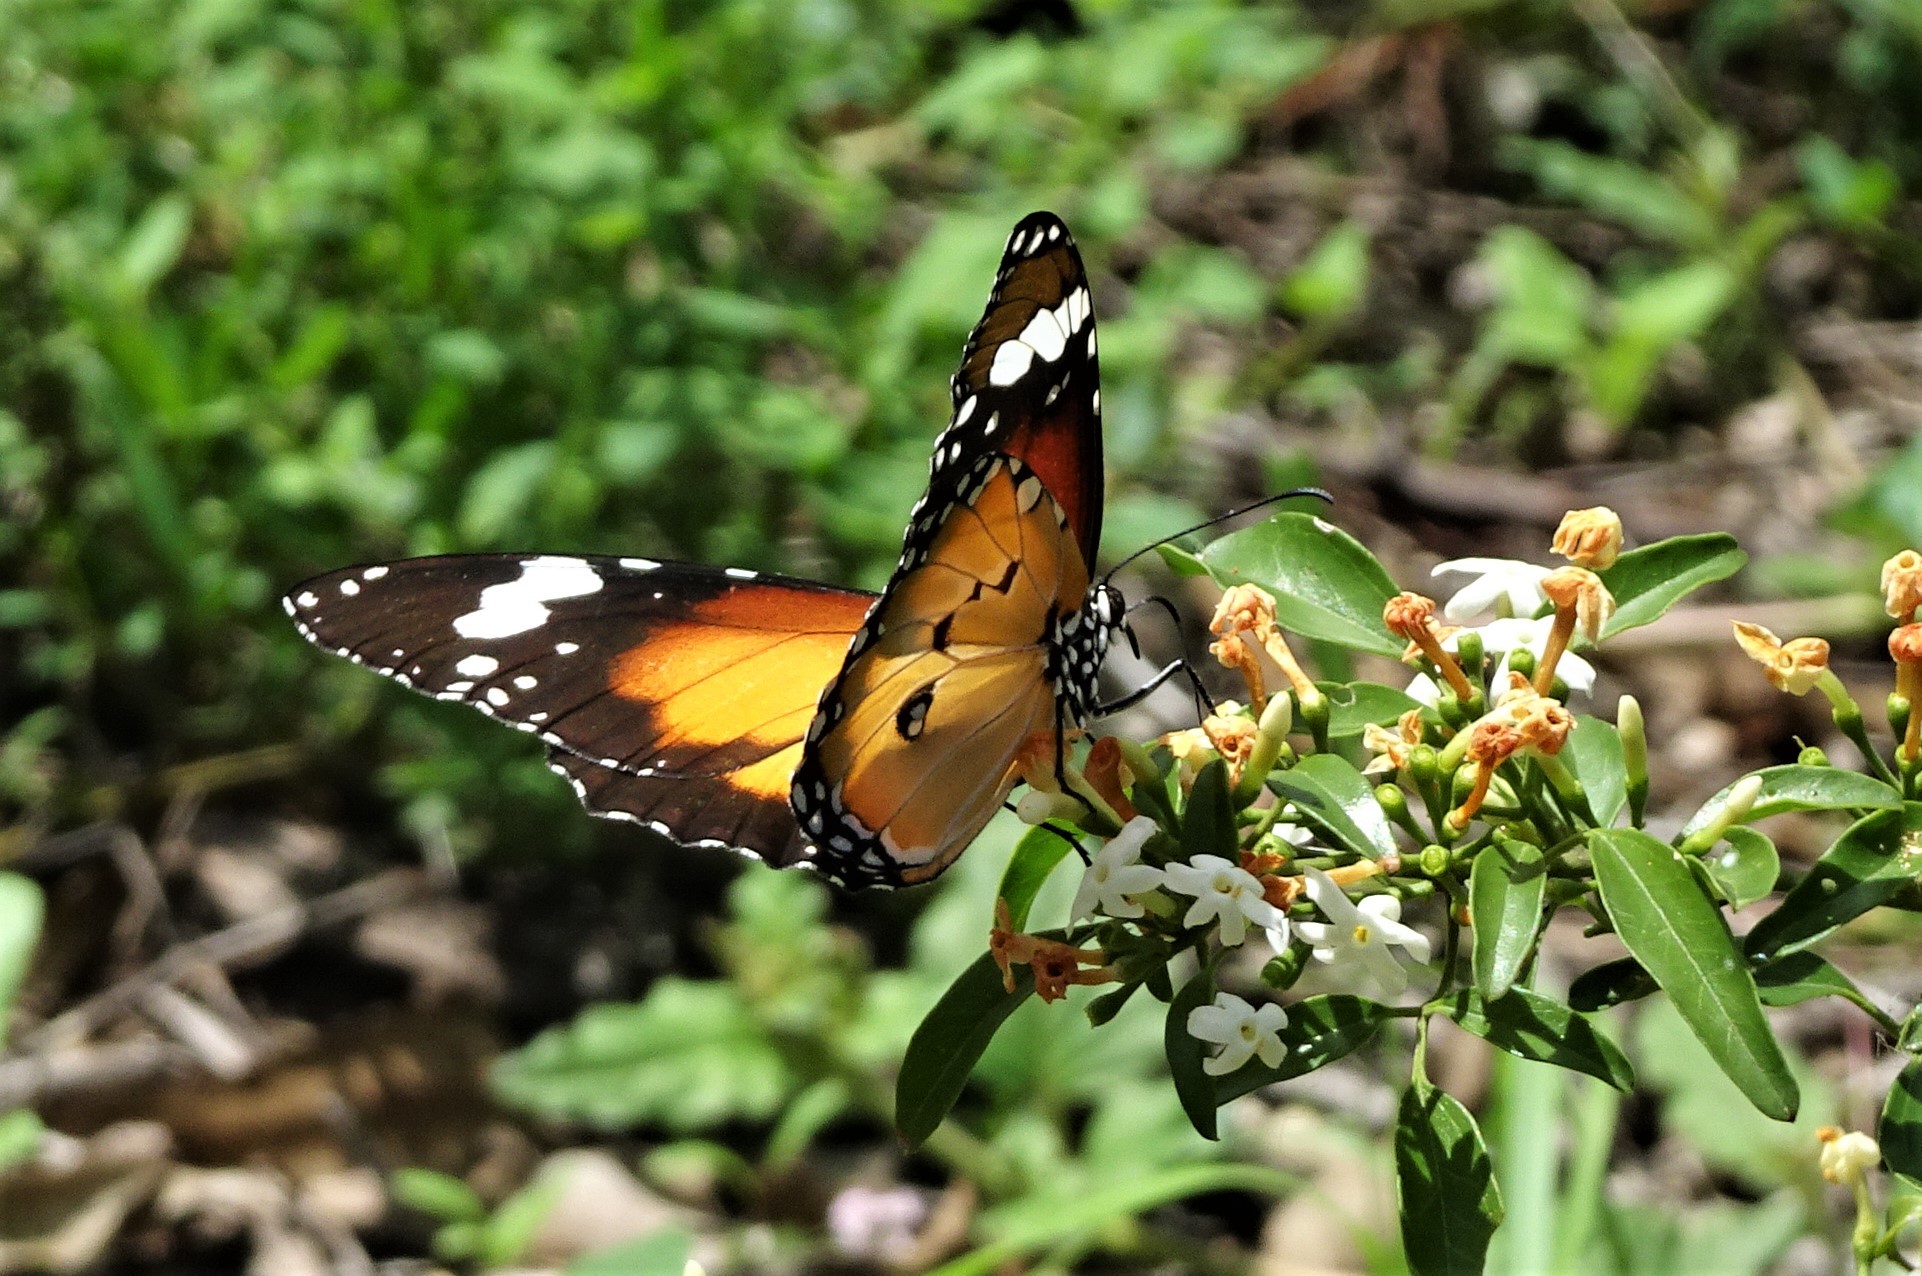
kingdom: Animalia
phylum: Arthropoda
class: Insecta
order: Lepidoptera
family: Nymphalidae
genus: Danaus
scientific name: Danaus chrysippus
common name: Plain tiger
